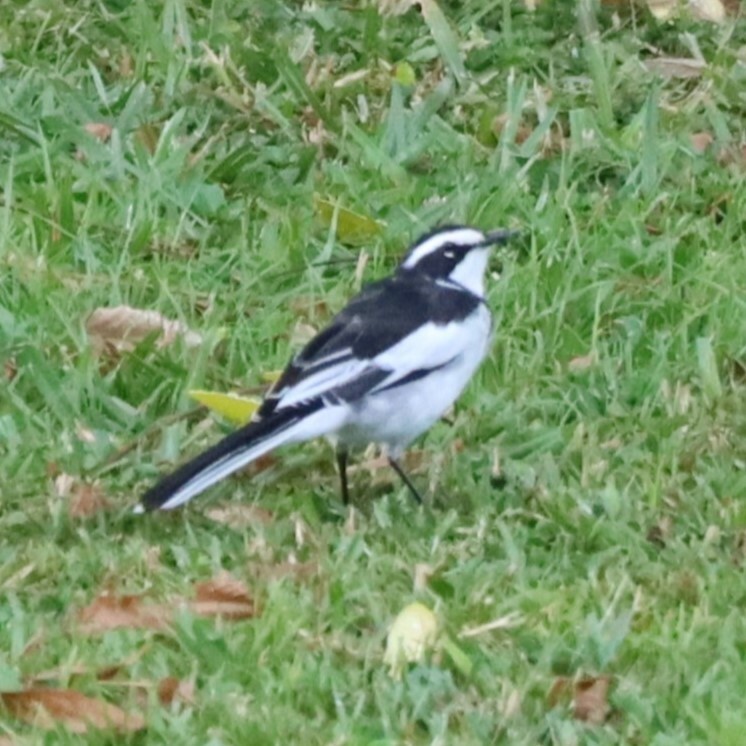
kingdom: Animalia
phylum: Chordata
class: Aves
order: Passeriformes
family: Motacillidae
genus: Motacilla
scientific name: Motacilla aguimp
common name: African pied wagtail
